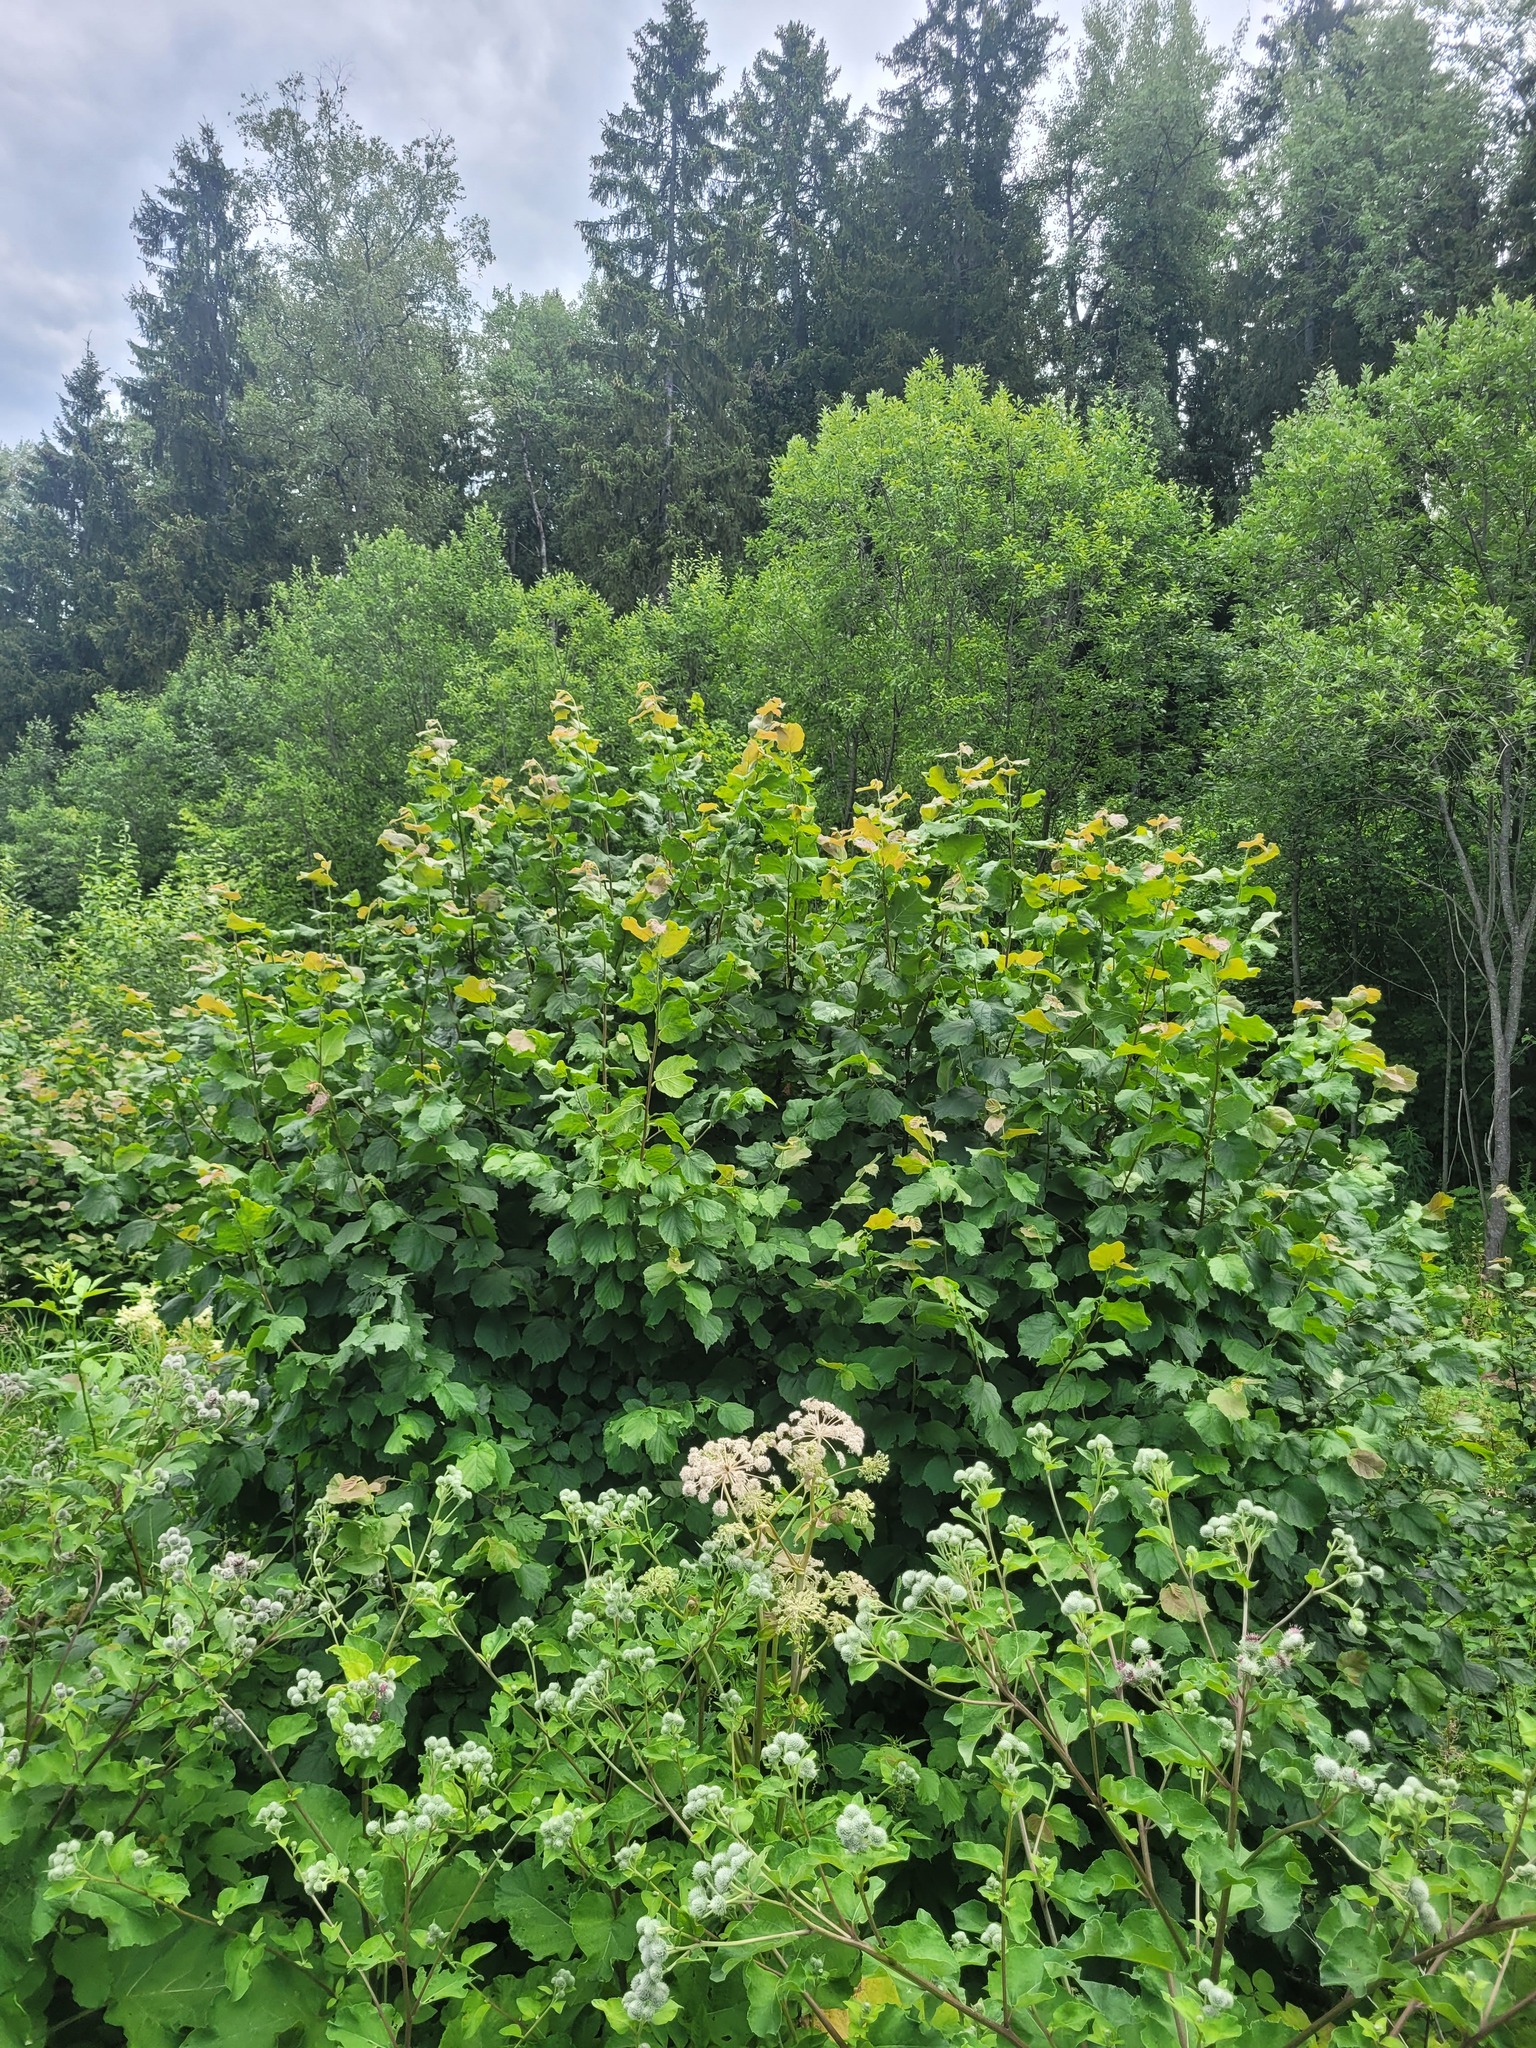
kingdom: Plantae
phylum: Tracheophyta
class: Magnoliopsida
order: Fagales
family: Betulaceae
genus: Corylus
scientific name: Corylus avellana
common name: European hazel
